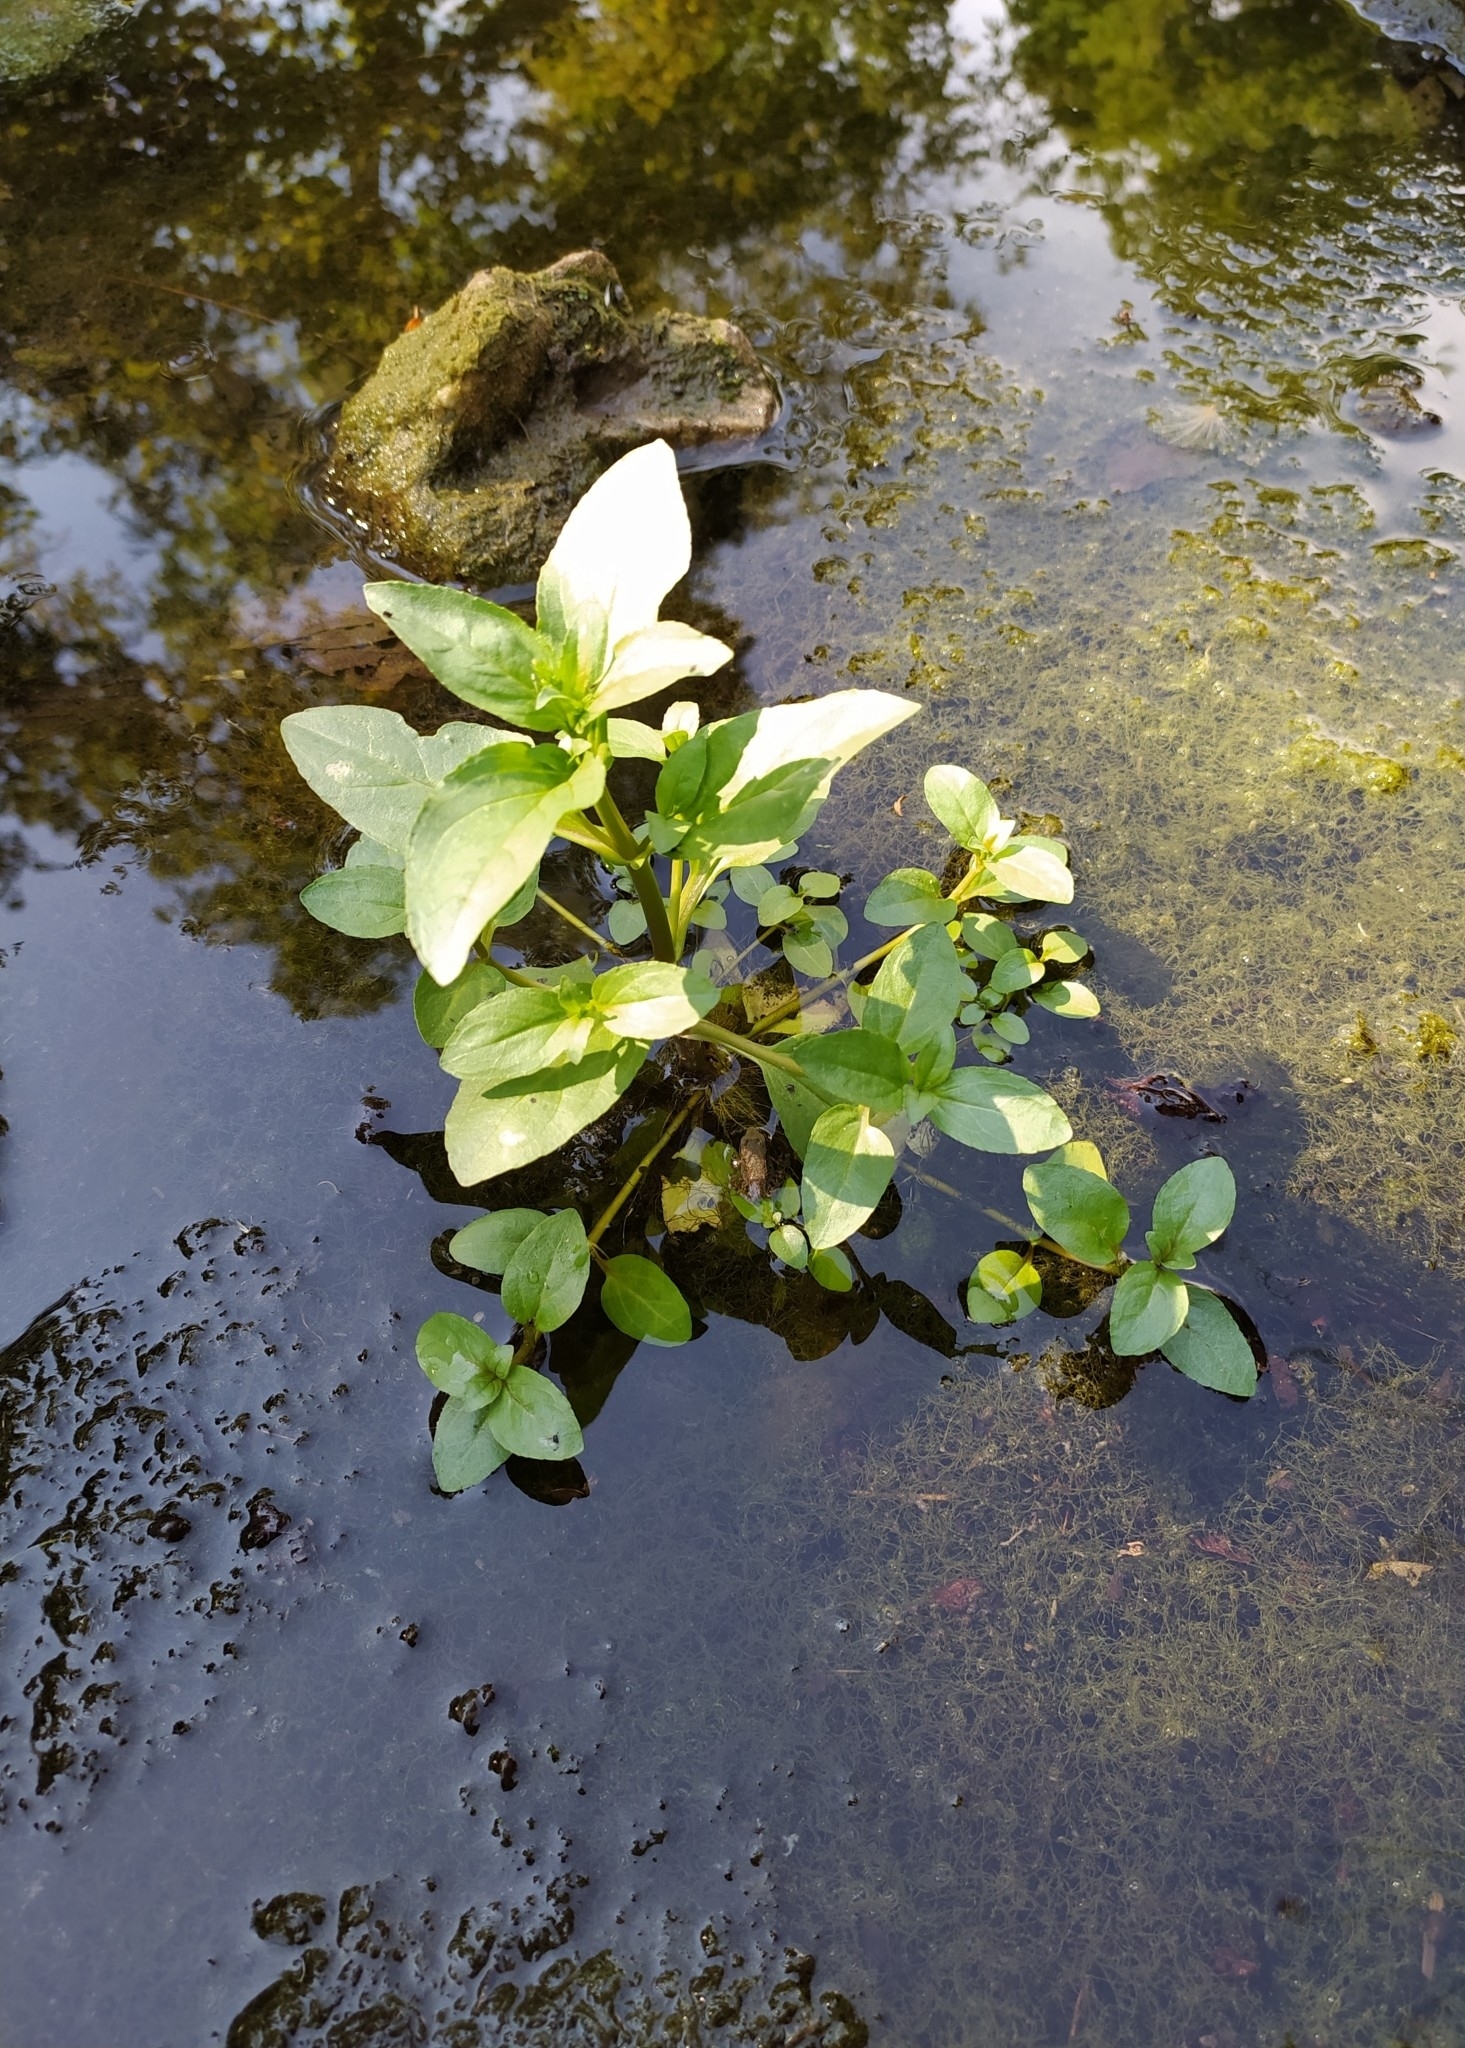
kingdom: Plantae
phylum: Tracheophyta
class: Magnoliopsida
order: Lamiales
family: Plantaginaceae
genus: Veronica
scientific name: Veronica beccabunga
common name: Brooklime
